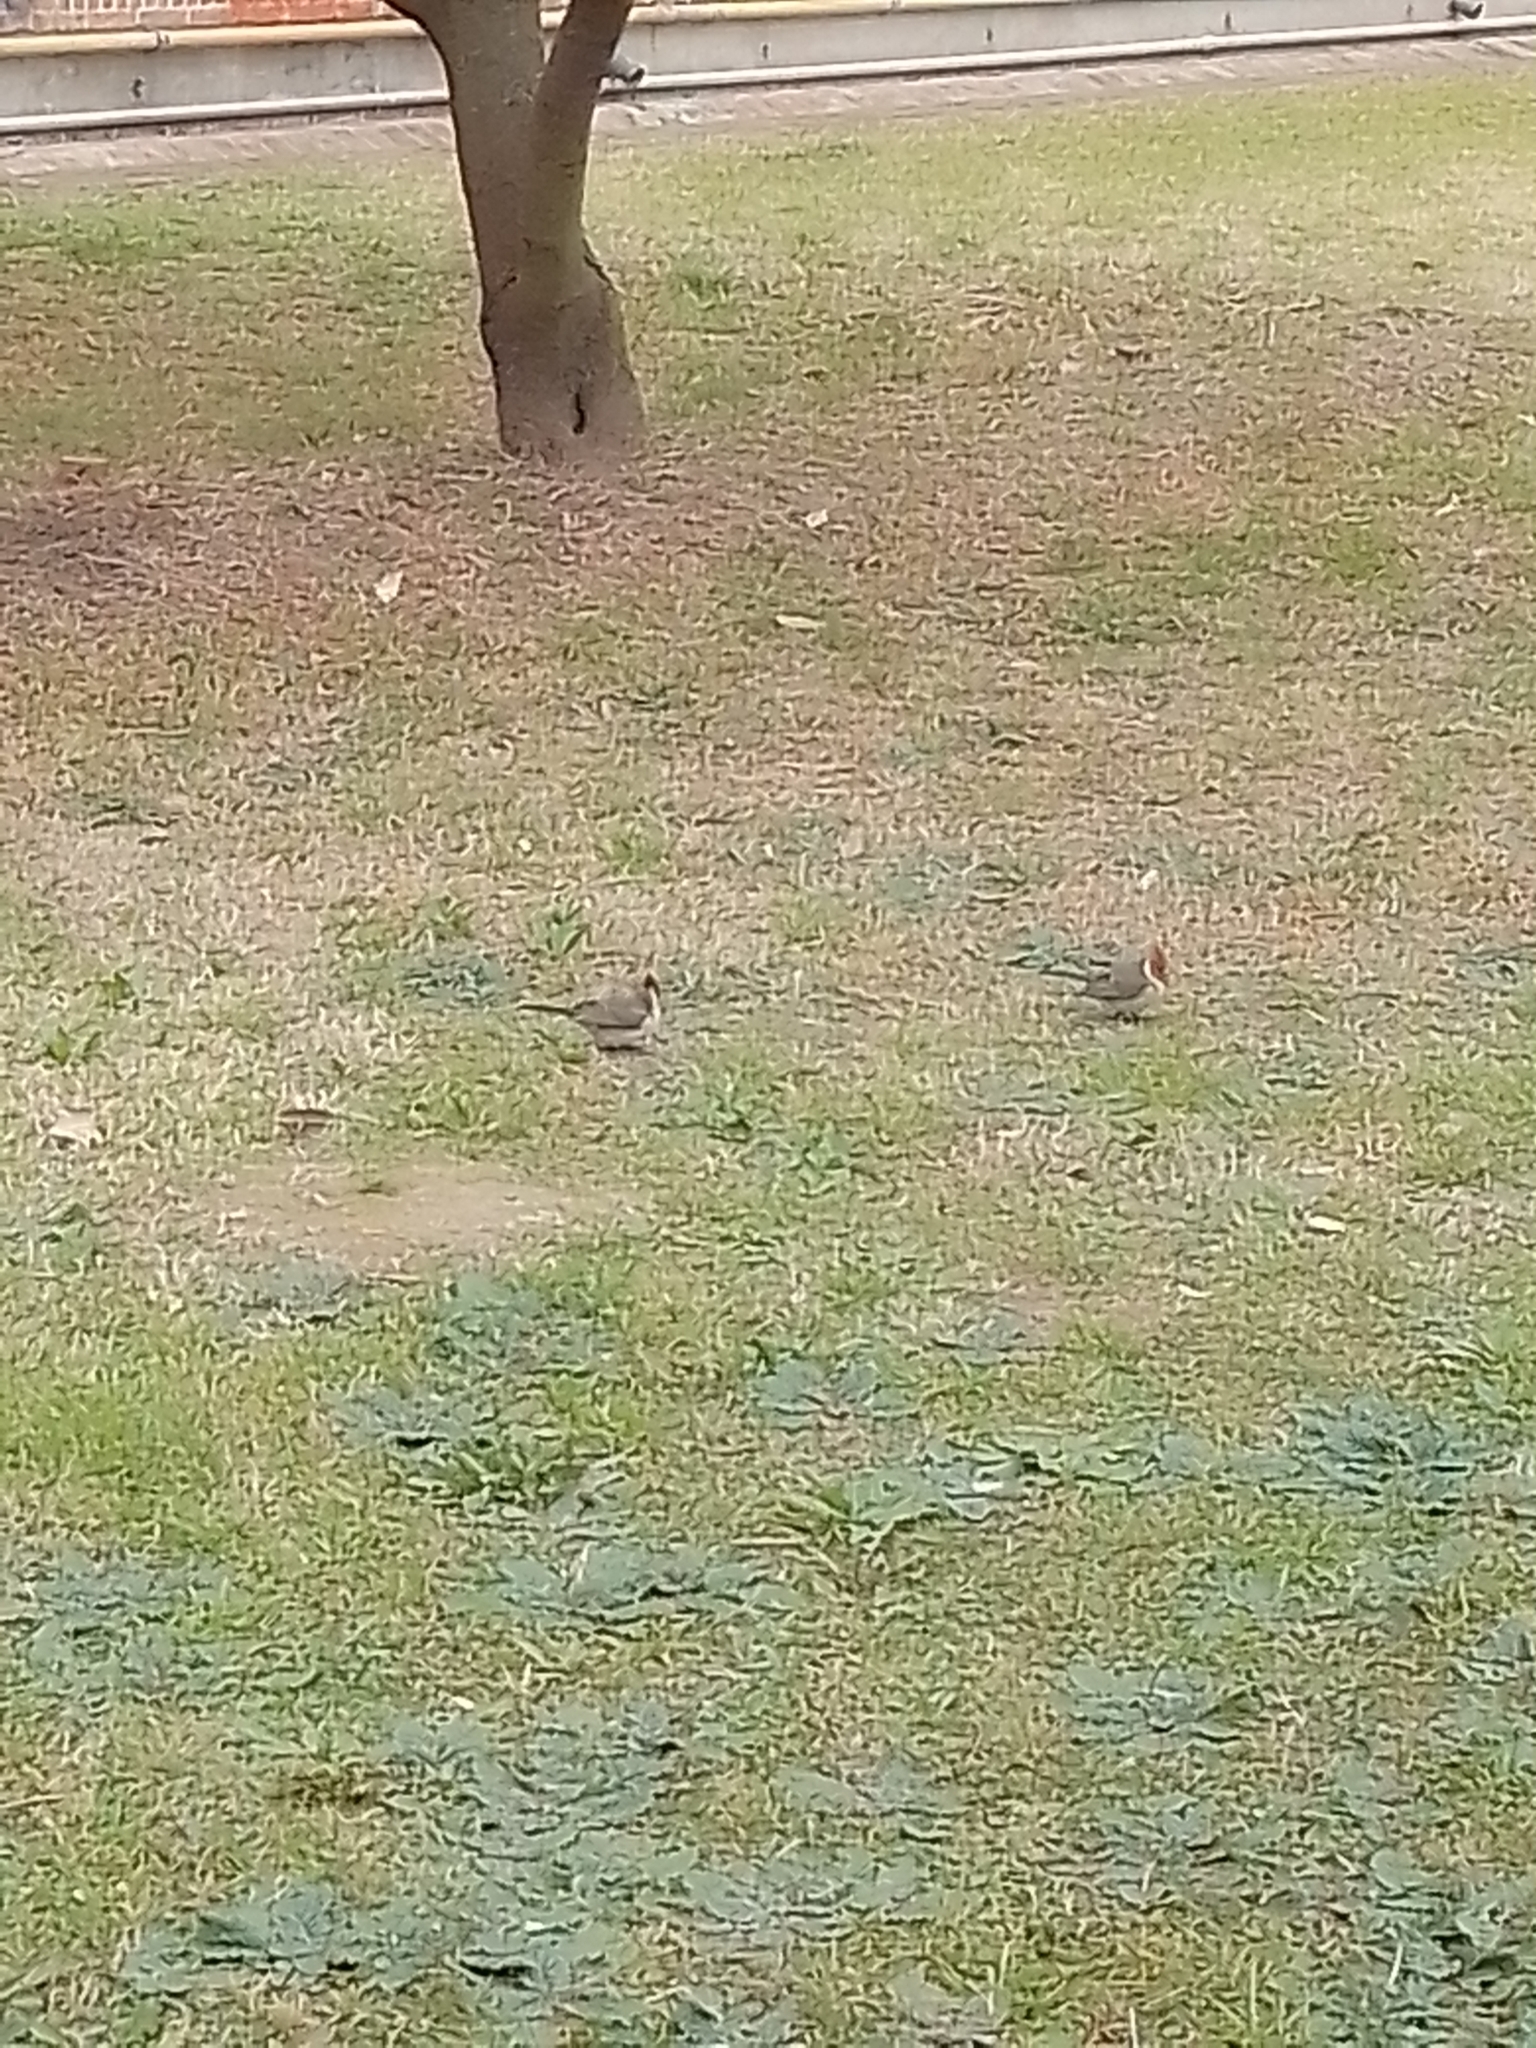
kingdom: Animalia
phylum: Chordata
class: Aves
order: Passeriformes
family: Thraupidae
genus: Paroaria
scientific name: Paroaria coronata
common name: Red-crested cardinal
